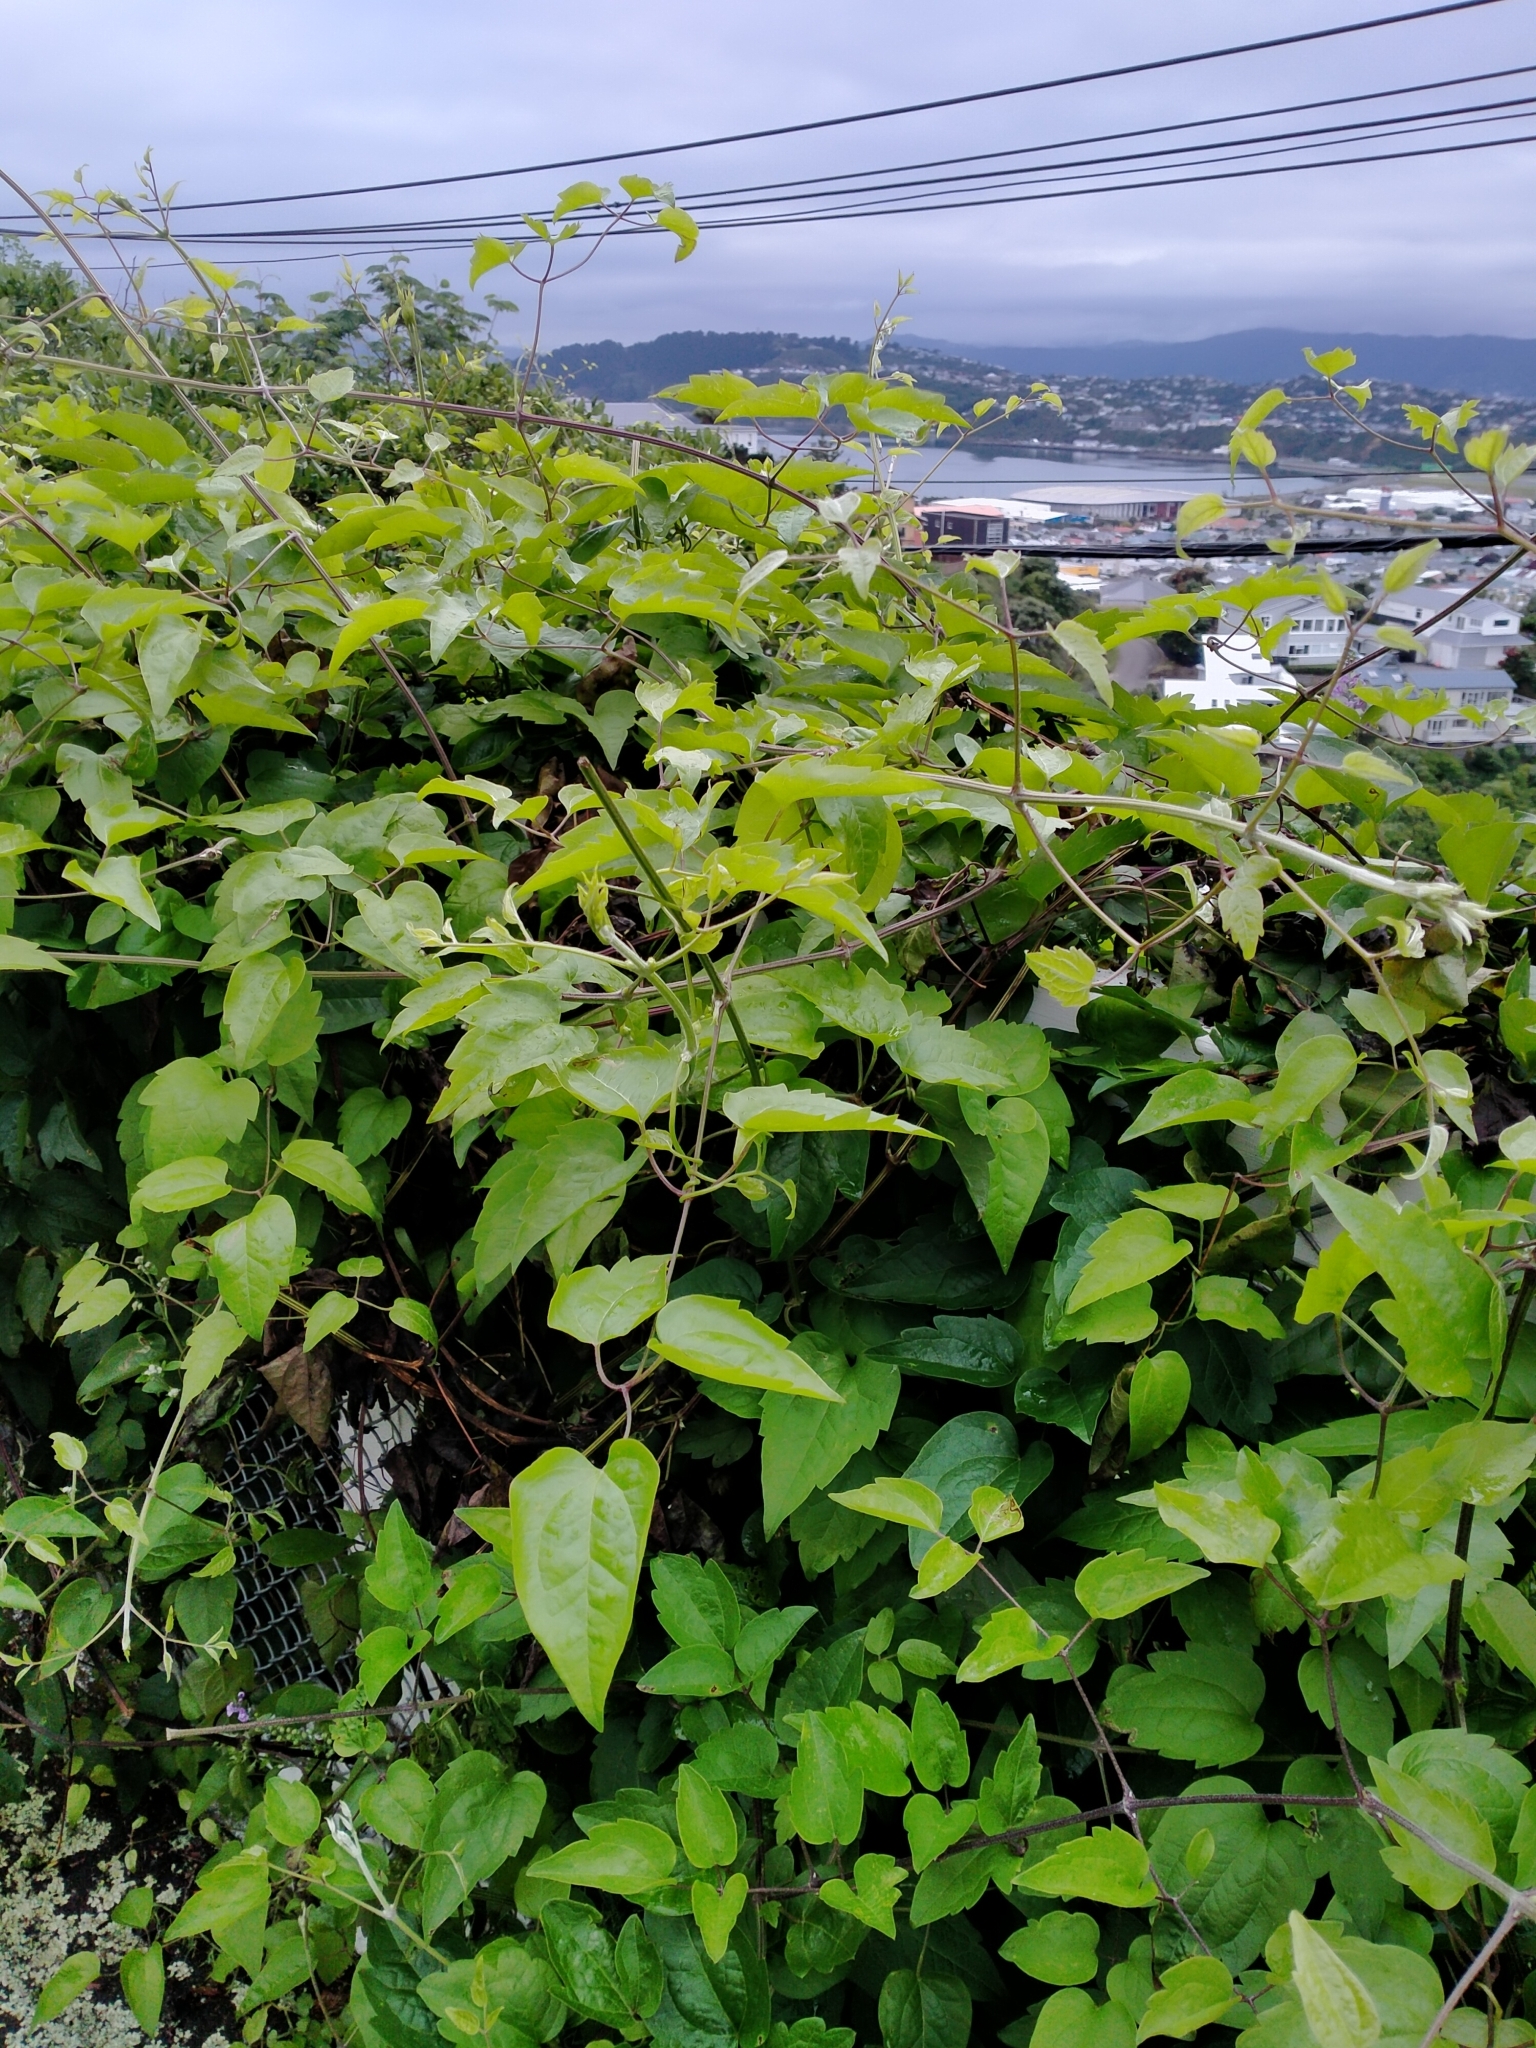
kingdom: Plantae
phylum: Tracheophyta
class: Magnoliopsida
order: Ranunculales
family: Ranunculaceae
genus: Clematis
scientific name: Clematis vitalba
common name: Evergreen clematis
